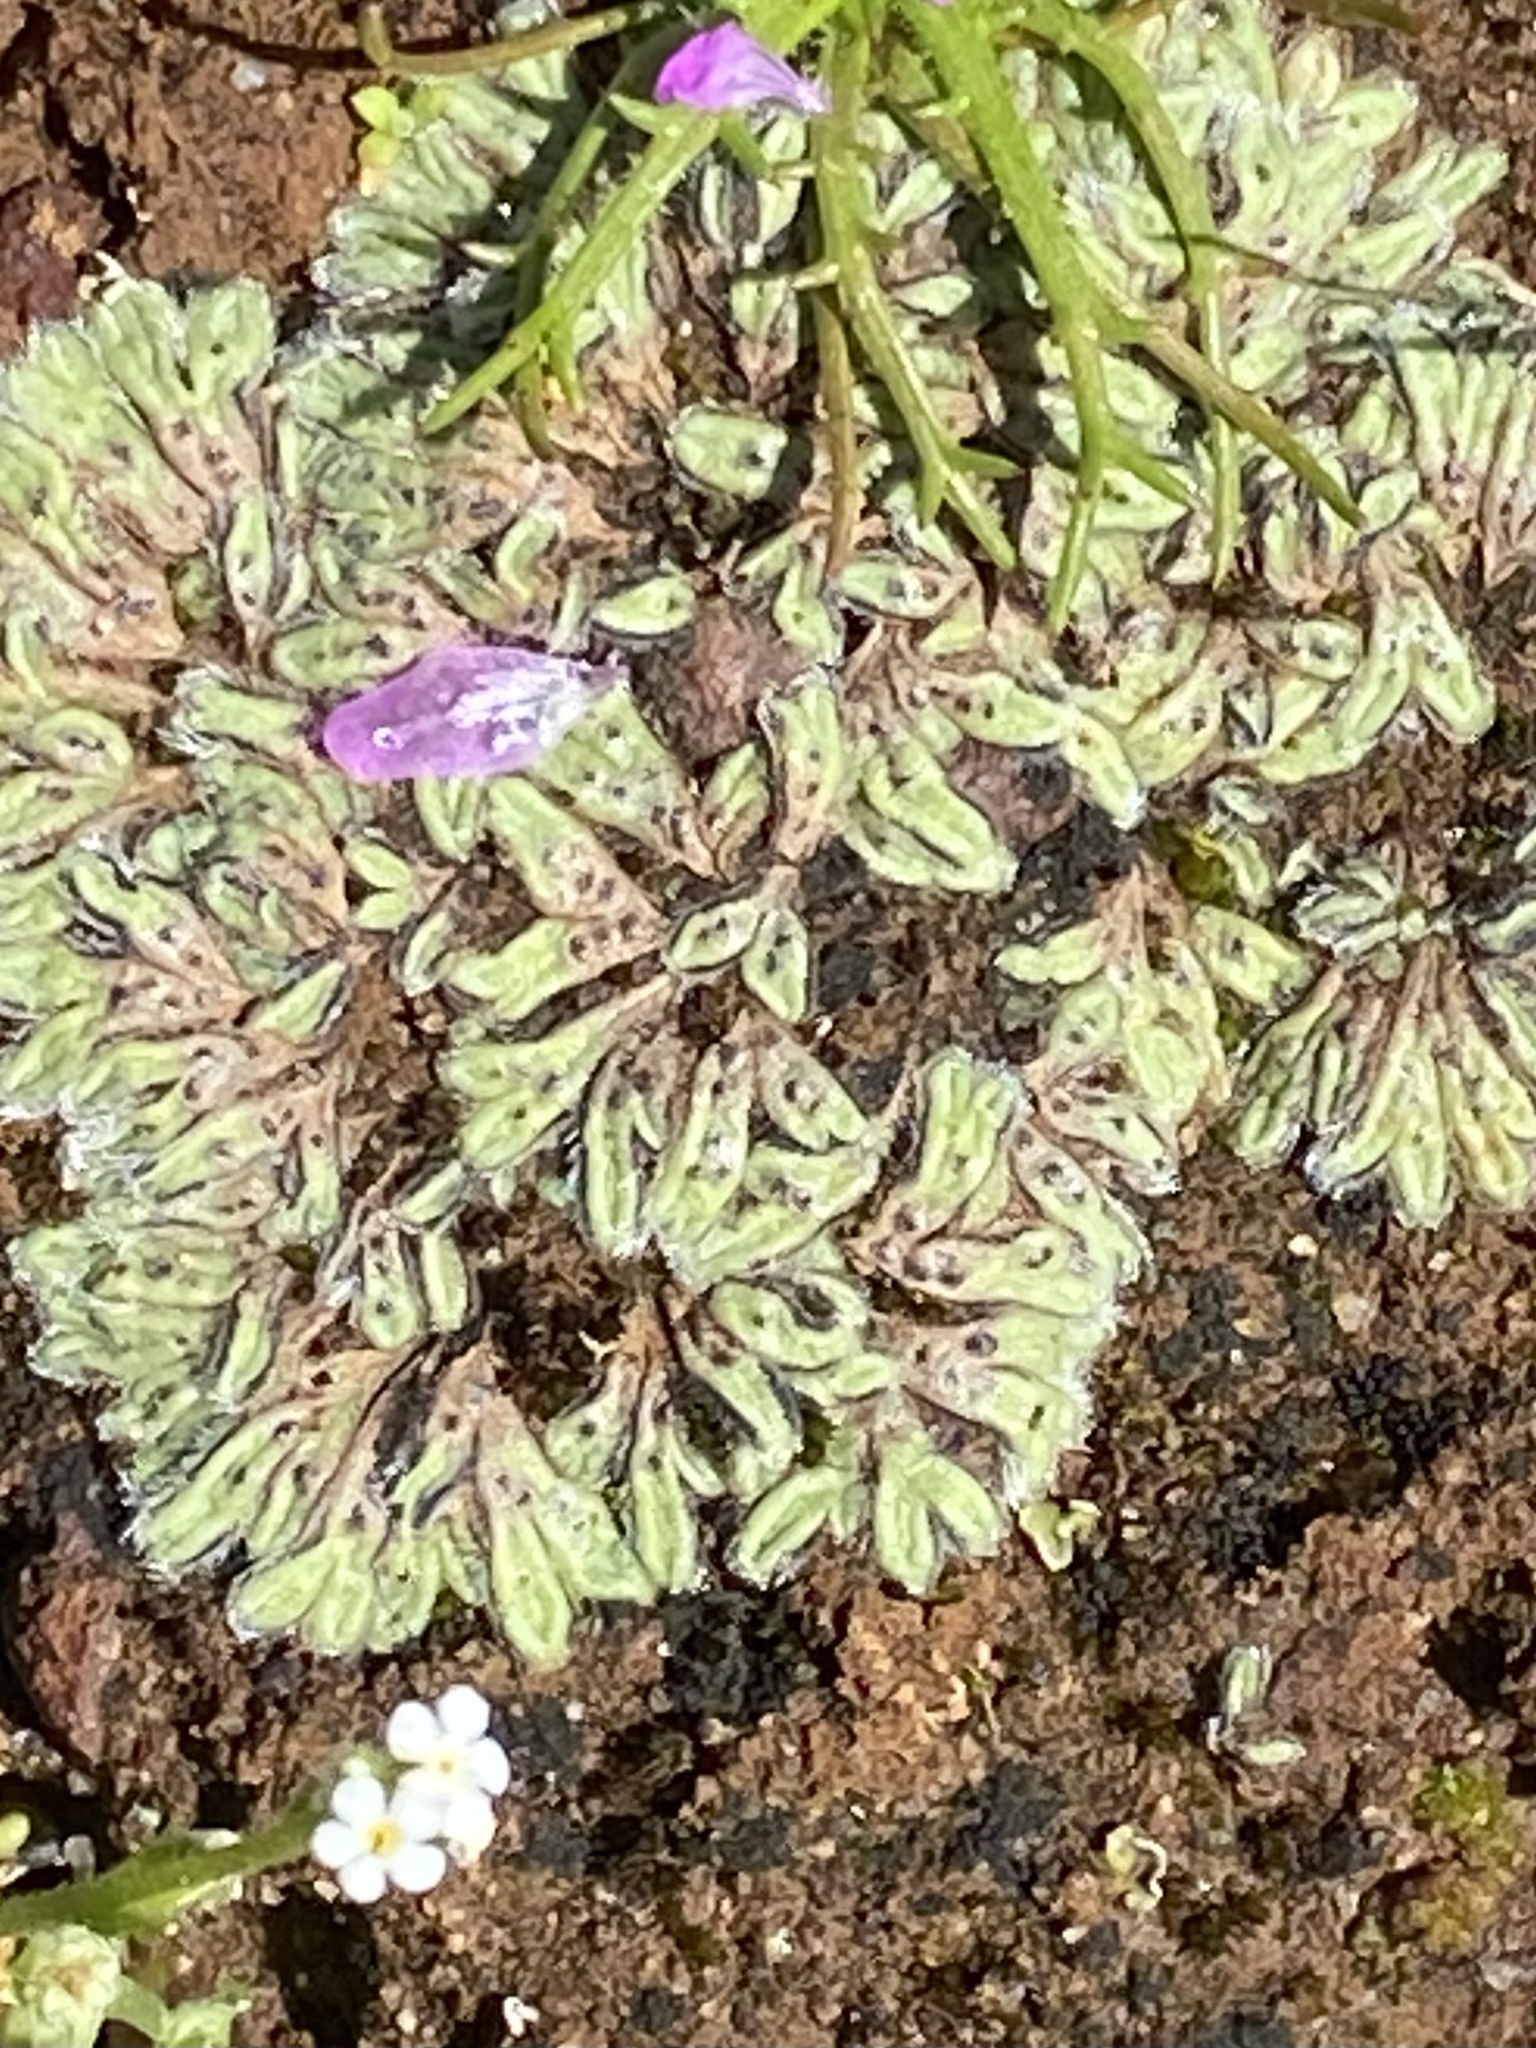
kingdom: Plantae
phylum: Marchantiophyta
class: Marchantiopsida
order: Marchantiales
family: Ricciaceae
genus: Riccia
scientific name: Riccia trichocarpa
